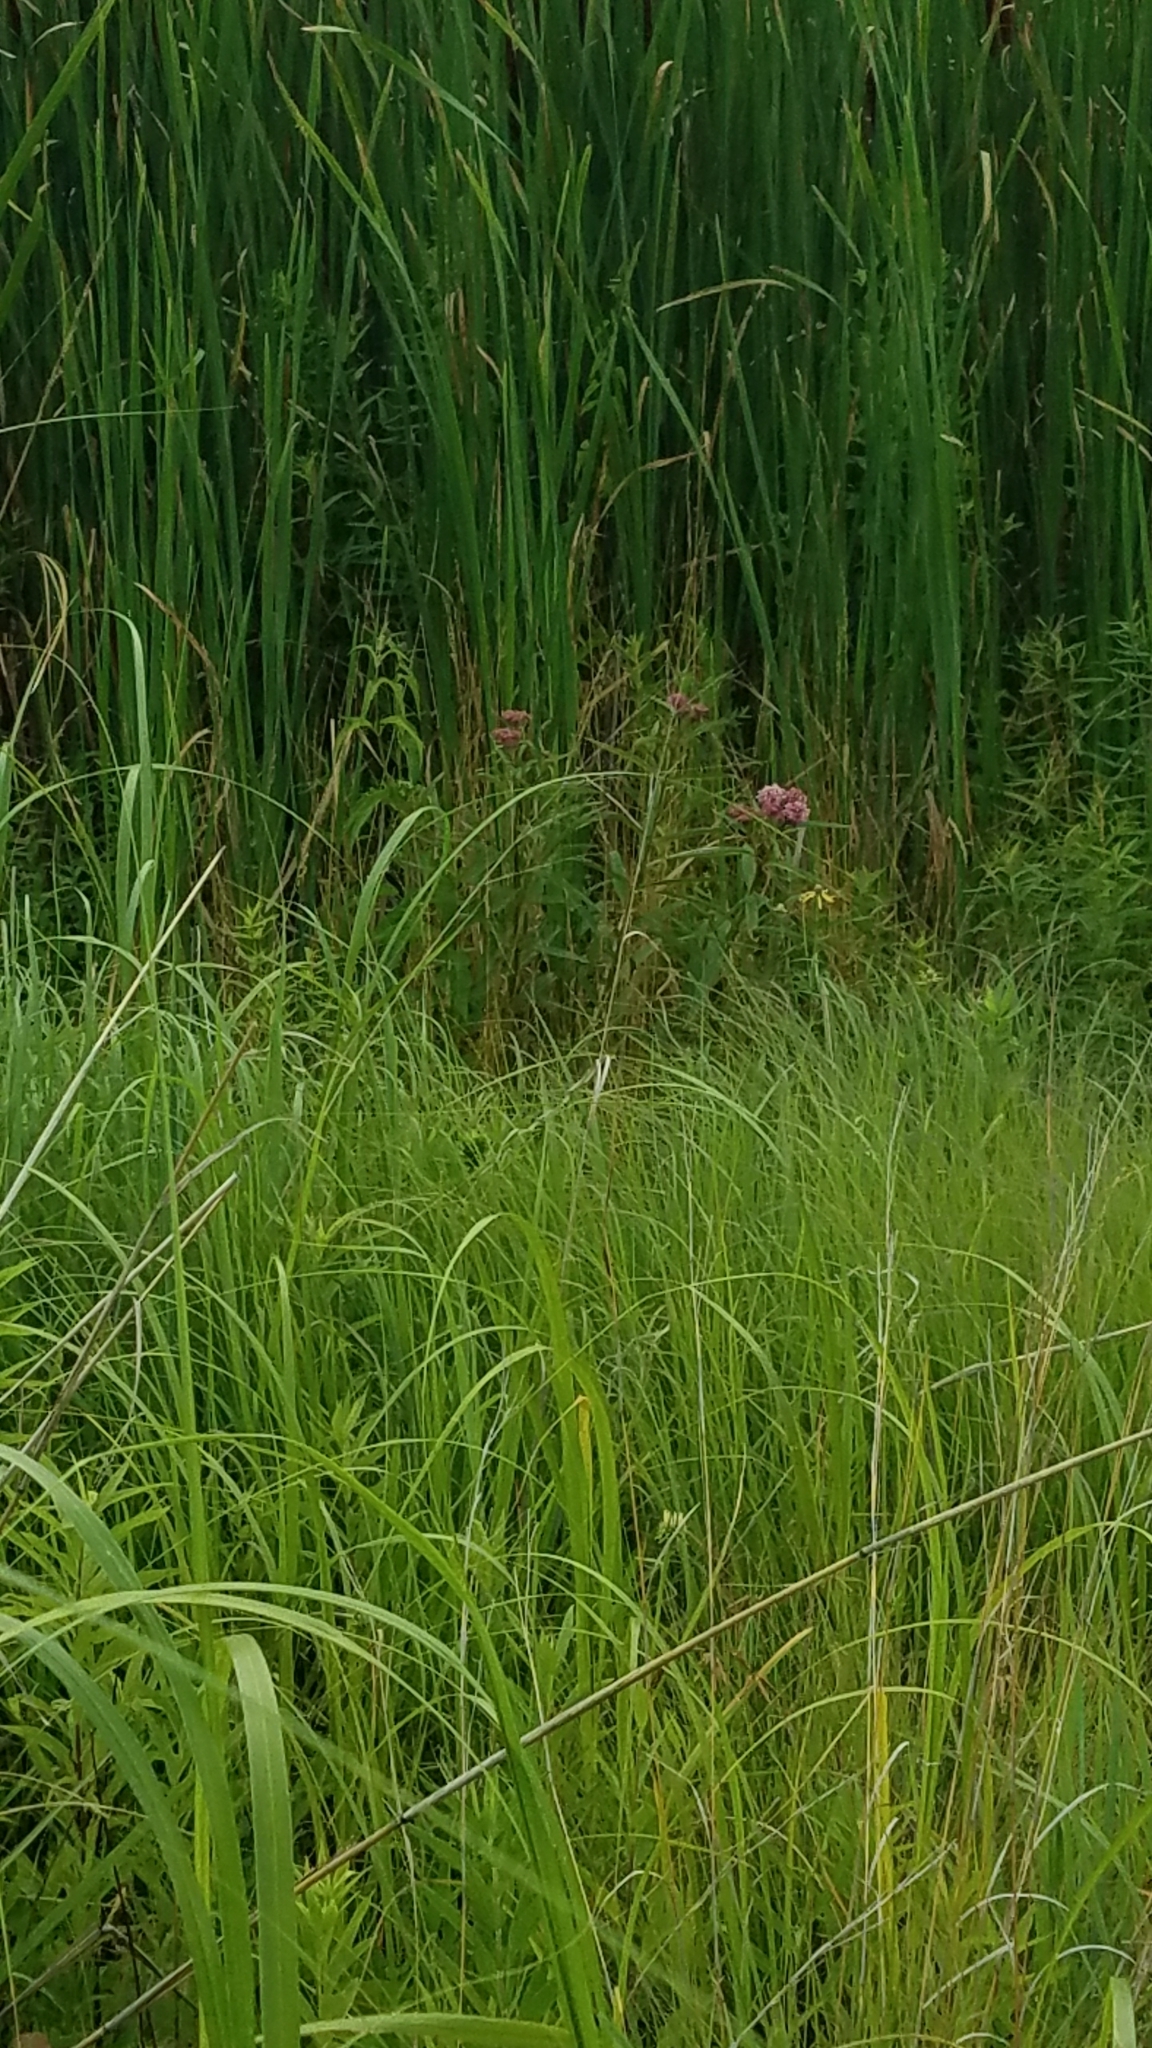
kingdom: Plantae
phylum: Tracheophyta
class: Magnoliopsida
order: Gentianales
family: Apocynaceae
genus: Asclepias
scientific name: Asclepias incarnata
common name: Swamp milkweed
